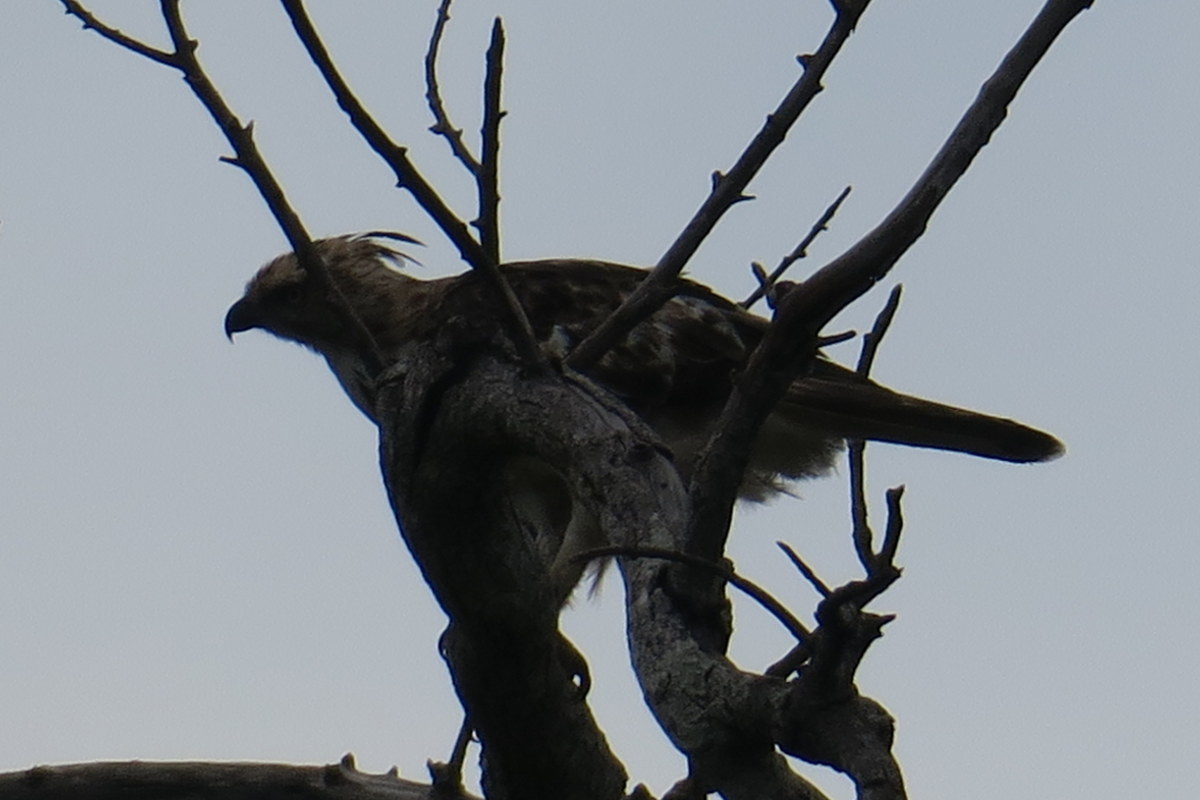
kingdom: Animalia
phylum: Chordata
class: Aves
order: Accipitriformes
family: Accipitridae
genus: Nisaetus
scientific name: Nisaetus cirrhatus
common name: Changeable hawk-eagle
